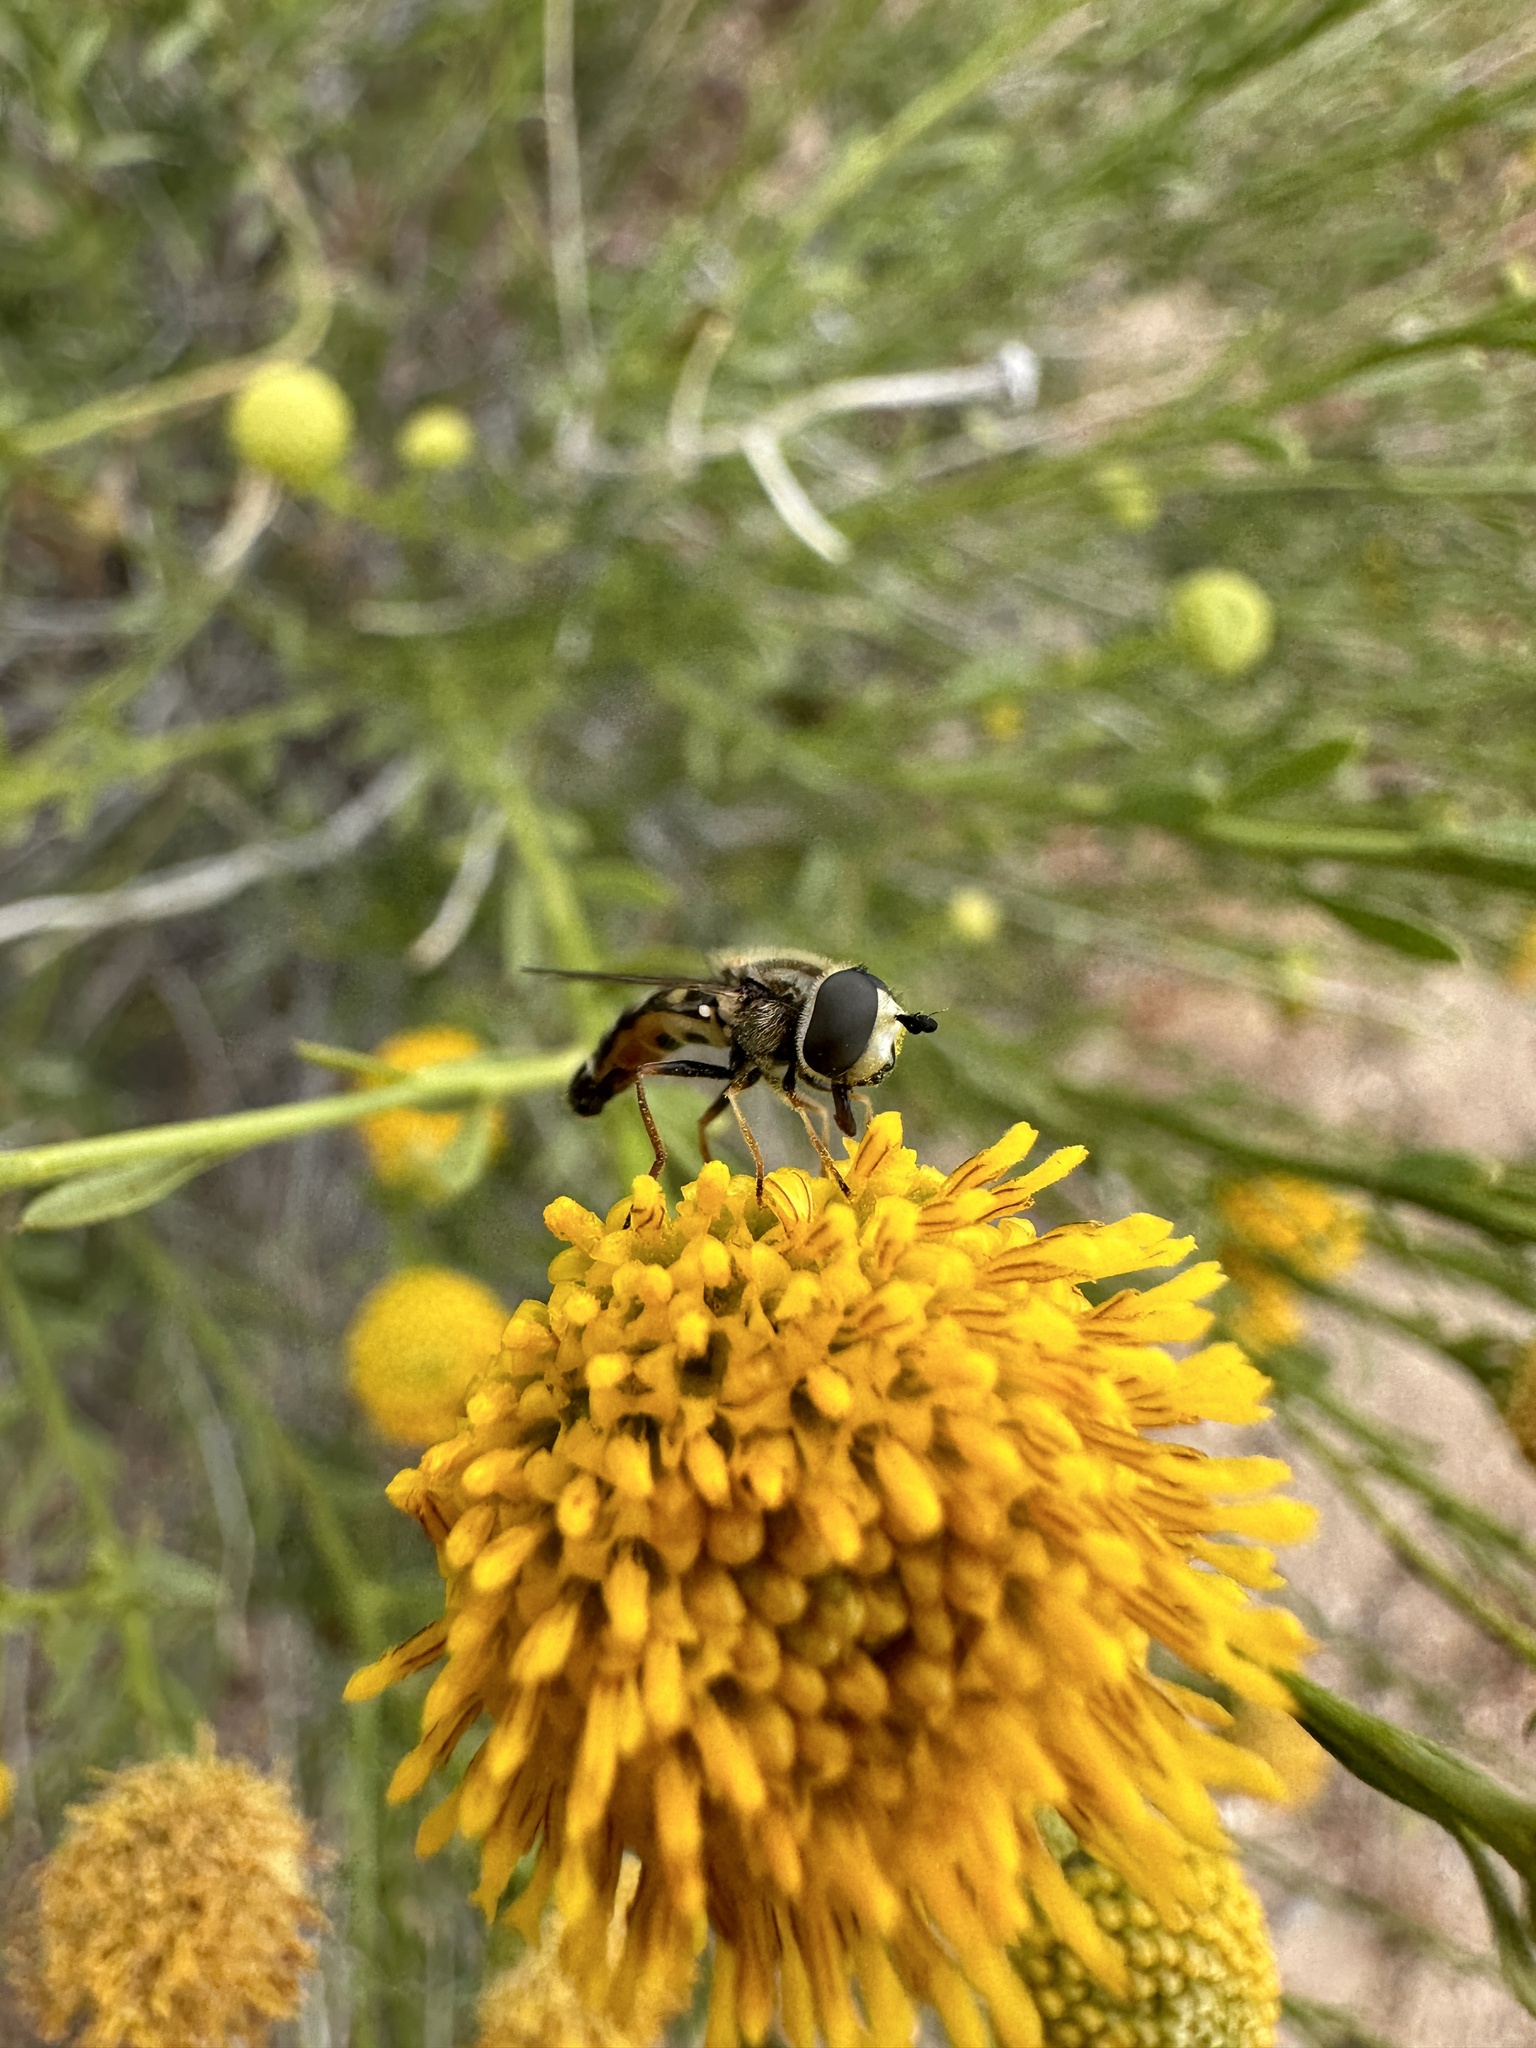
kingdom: Animalia
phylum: Arthropoda
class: Insecta
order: Diptera
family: Syrphidae
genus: Eupeodes
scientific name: Eupeodes volucris
